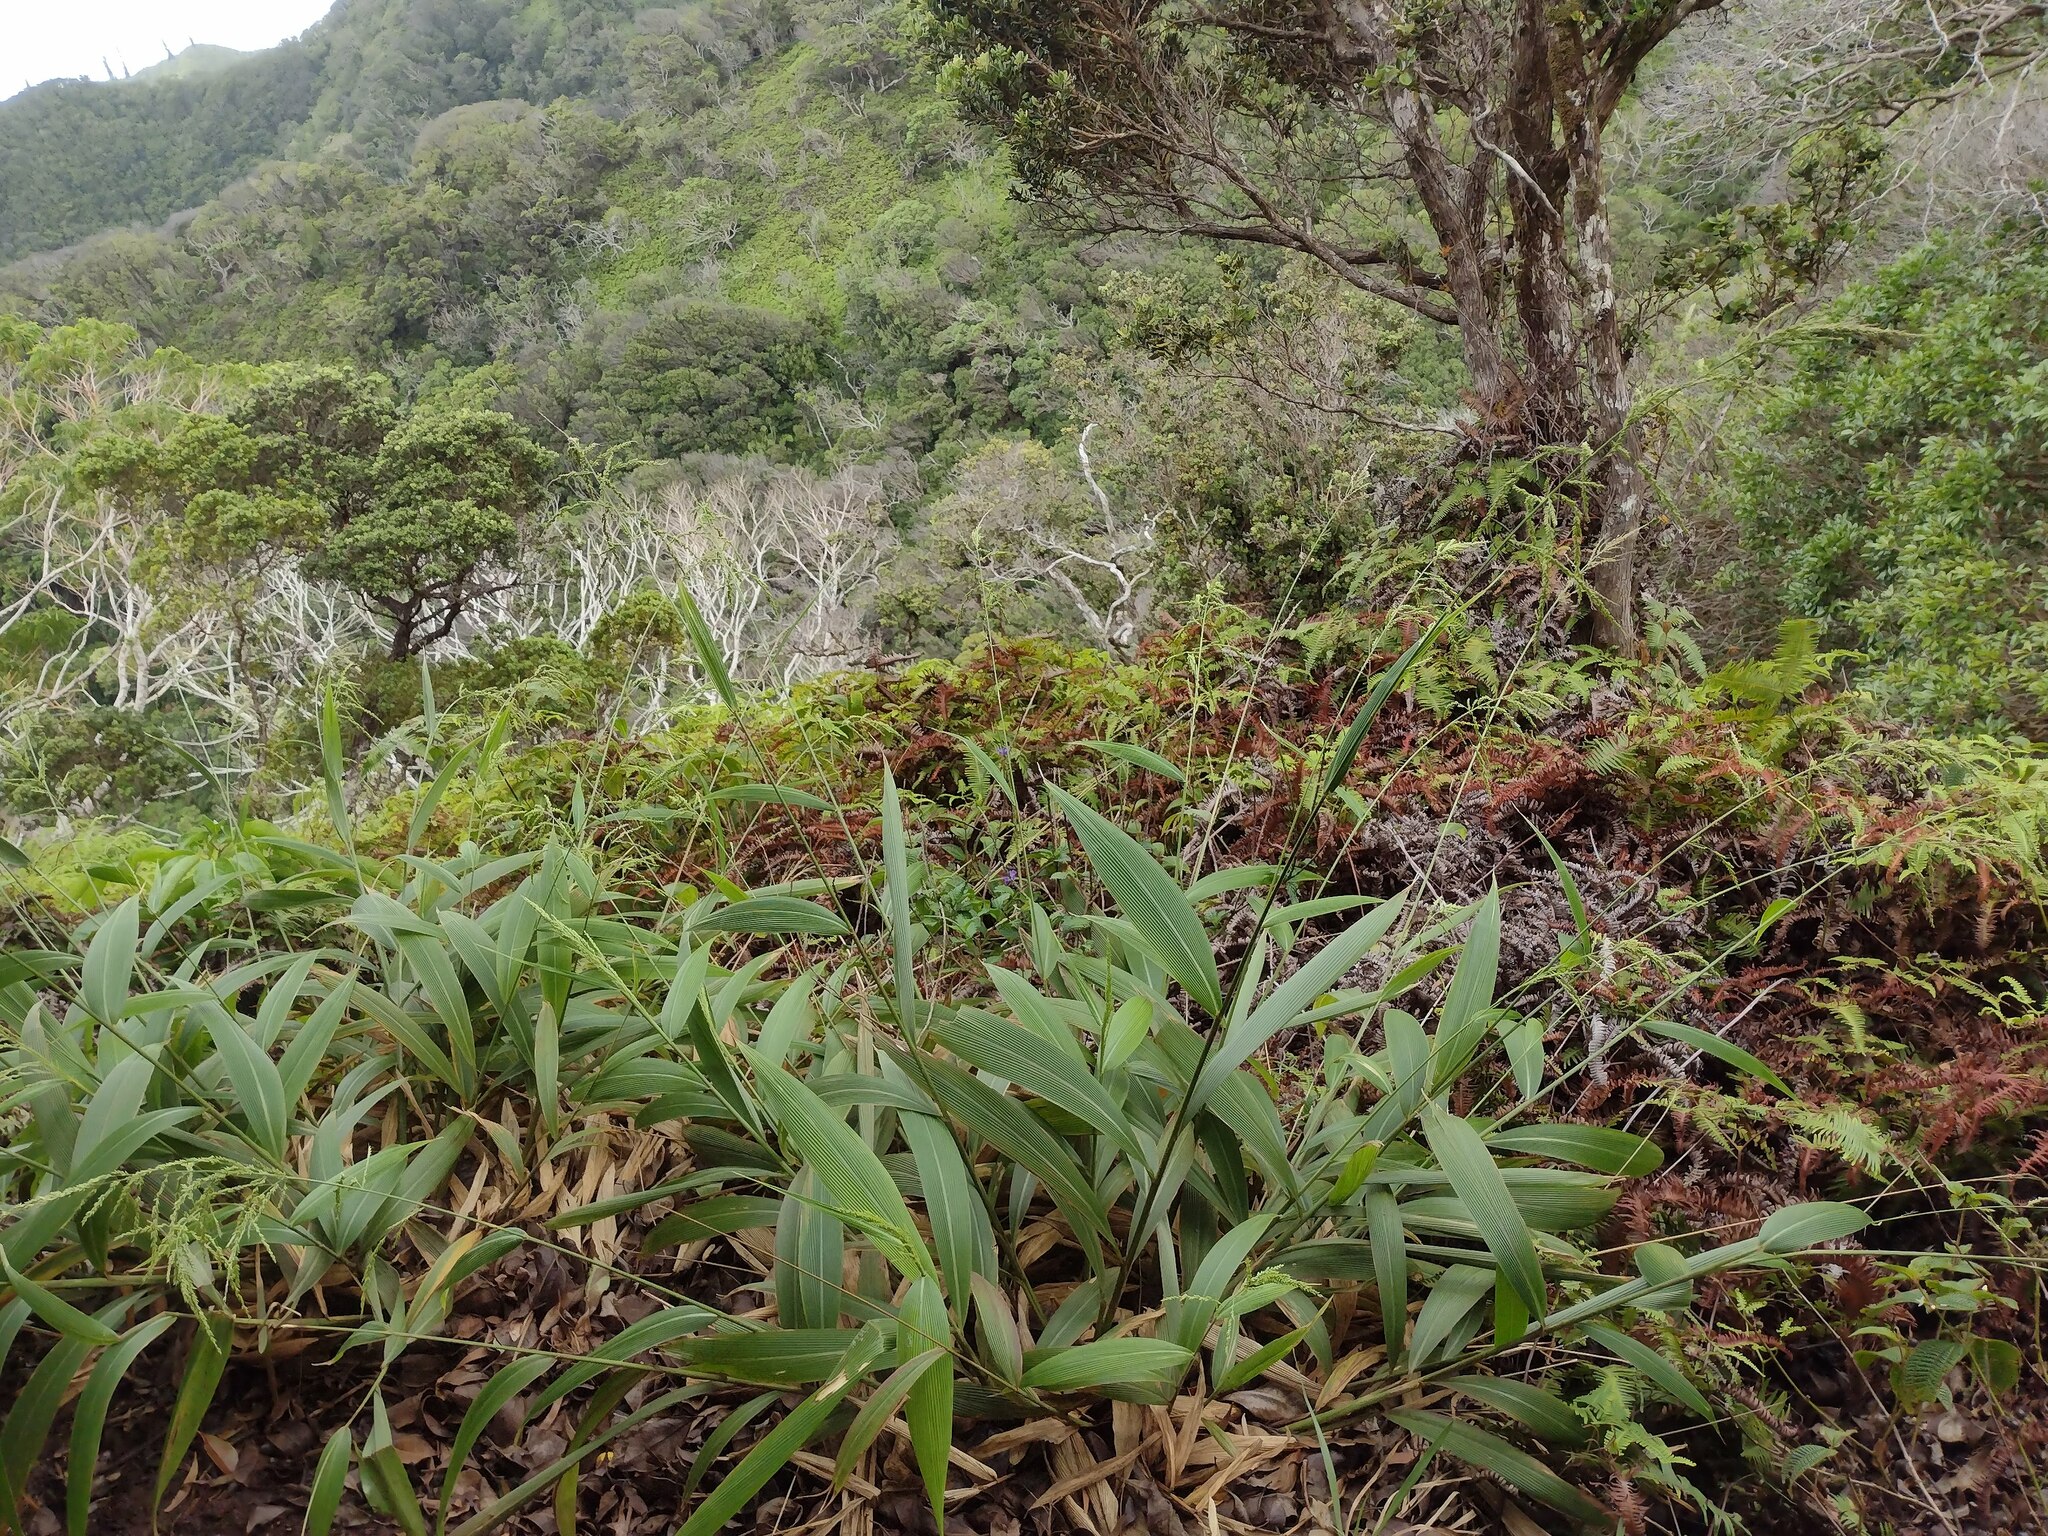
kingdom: Plantae
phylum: Tracheophyta
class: Liliopsida
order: Poales
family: Poaceae
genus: Setaria
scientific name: Setaria palmifolia
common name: Broadleaved bristlegrass
